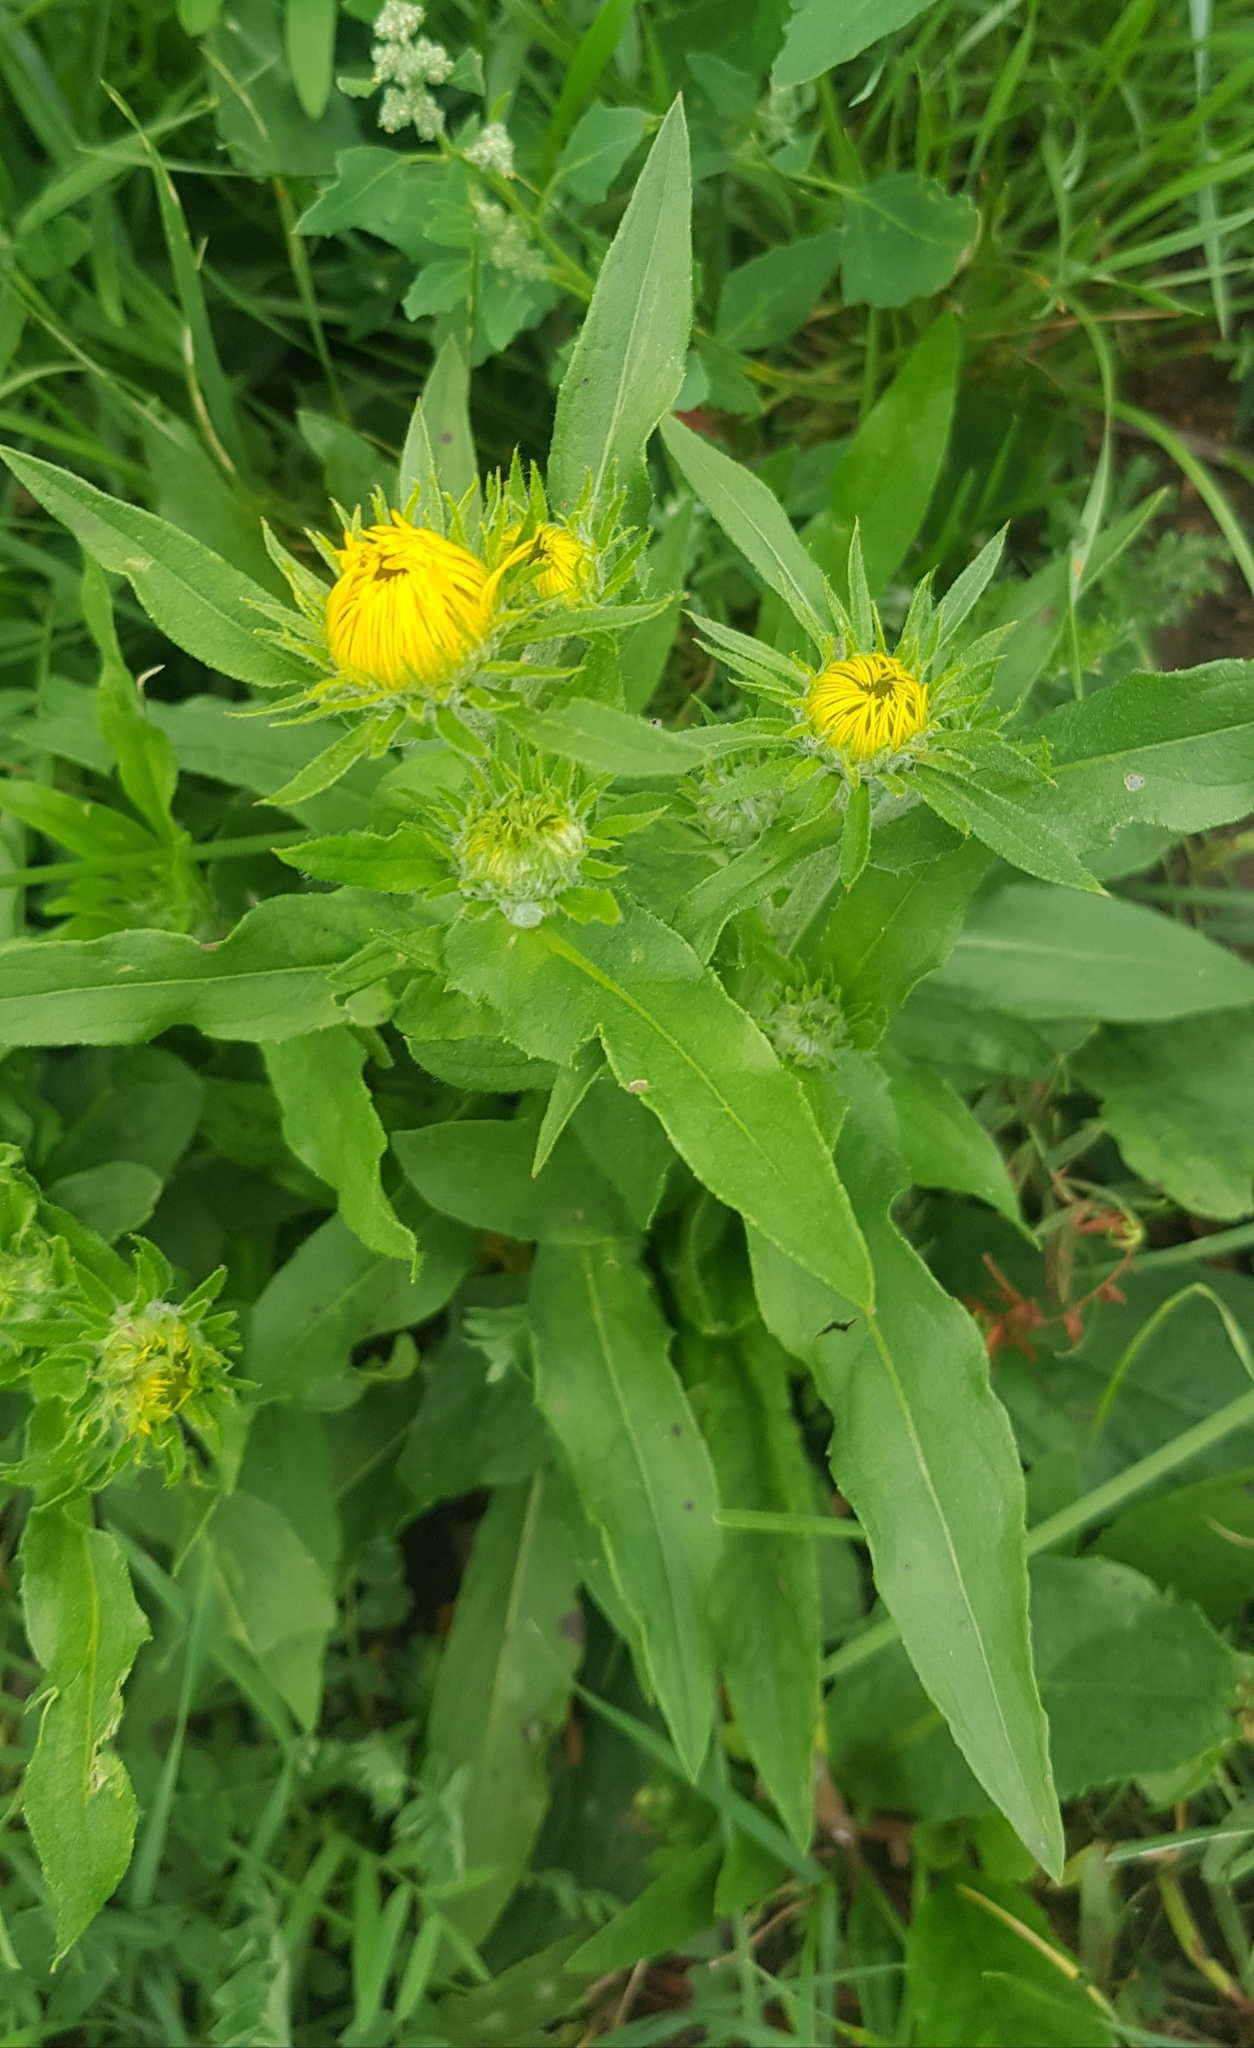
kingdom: Plantae
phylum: Tracheophyta
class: Magnoliopsida
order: Asterales
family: Asteraceae
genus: Pentanema
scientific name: Pentanema britannicum
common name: British elecampane
